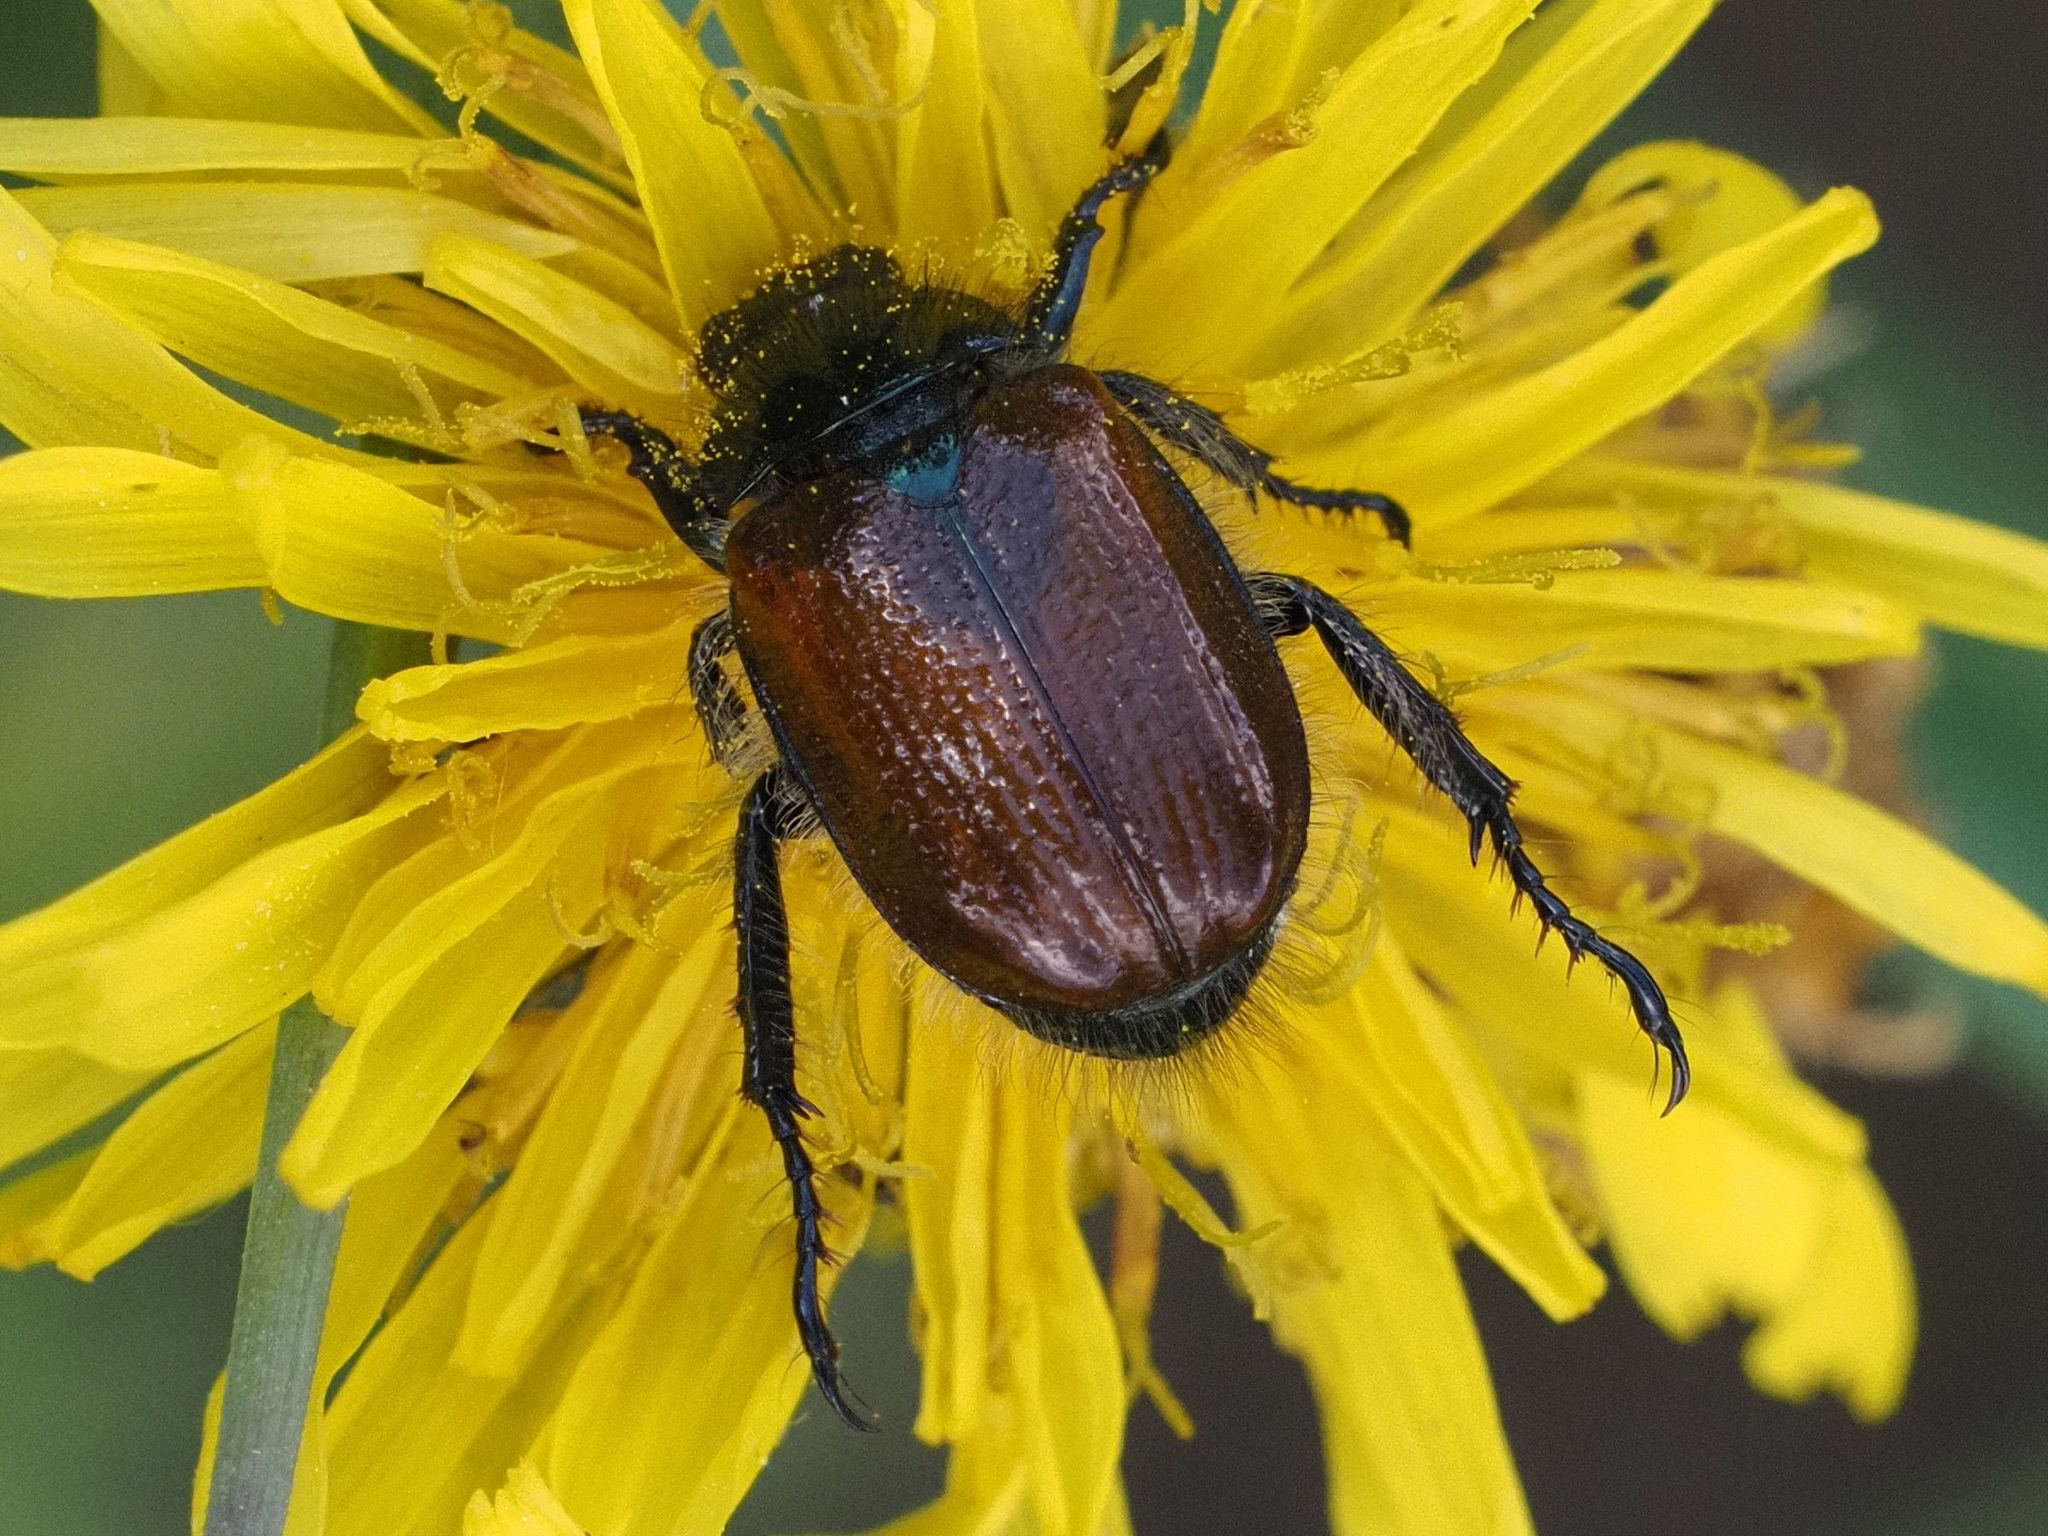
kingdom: Animalia
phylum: Arthropoda
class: Insecta
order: Coleoptera
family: Scarabaeidae
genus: Phyllopertha
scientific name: Phyllopertha horticola
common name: Garden chafer
